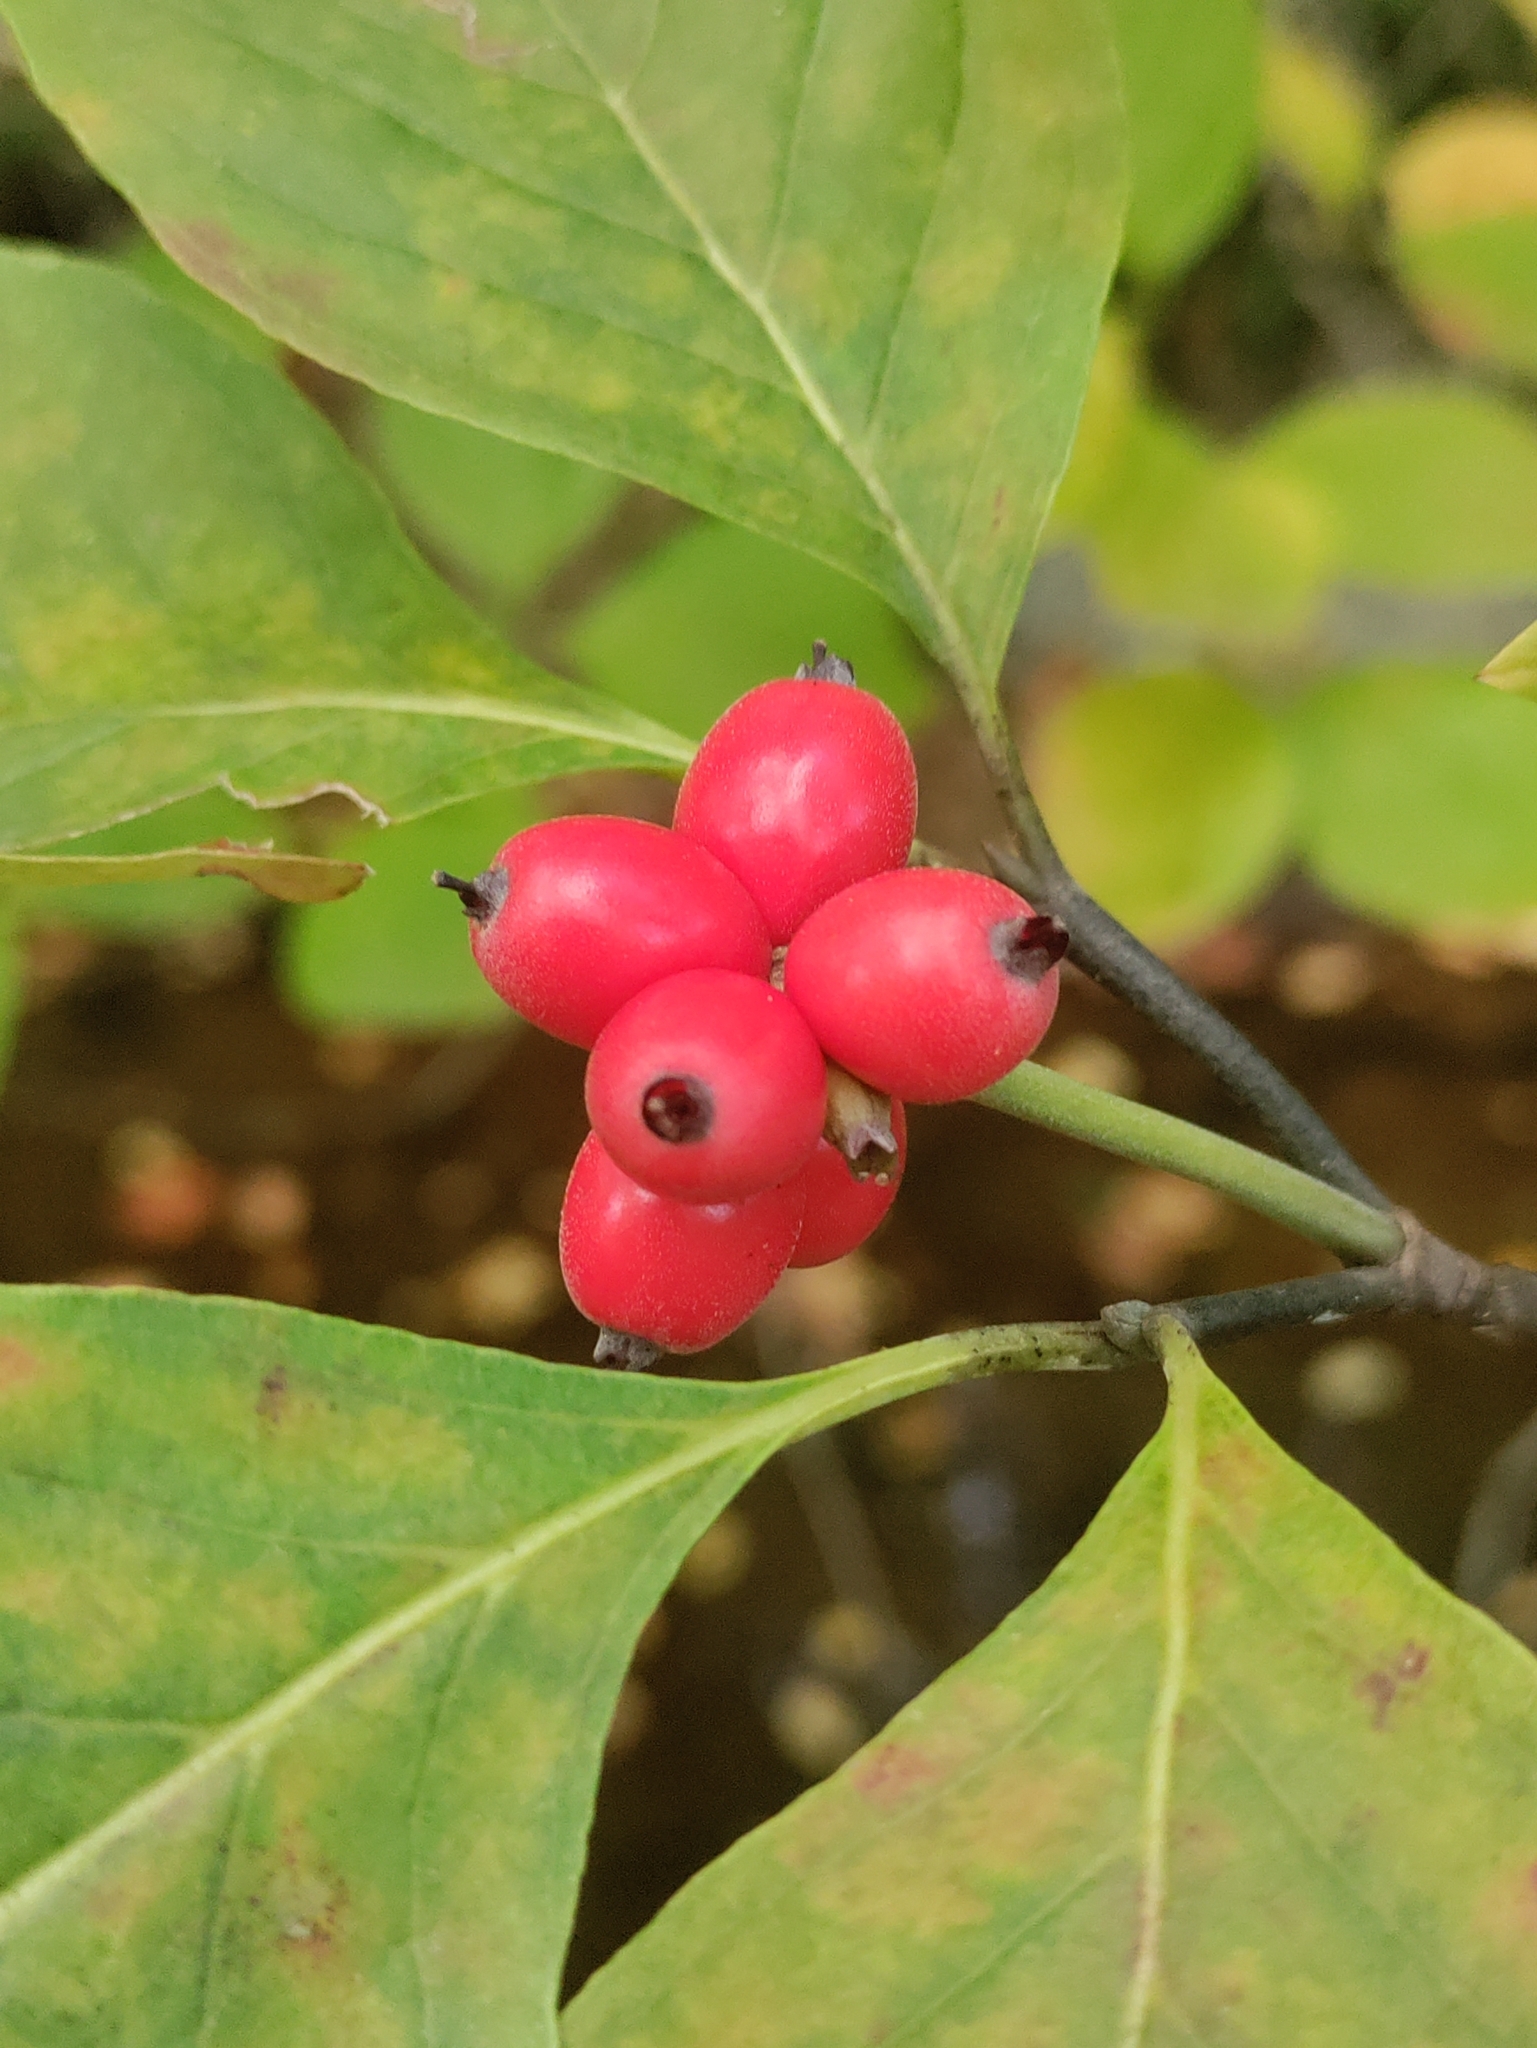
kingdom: Plantae
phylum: Tracheophyta
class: Magnoliopsida
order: Cornales
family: Cornaceae
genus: Cornus
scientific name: Cornus florida
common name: Flowering dogwood
